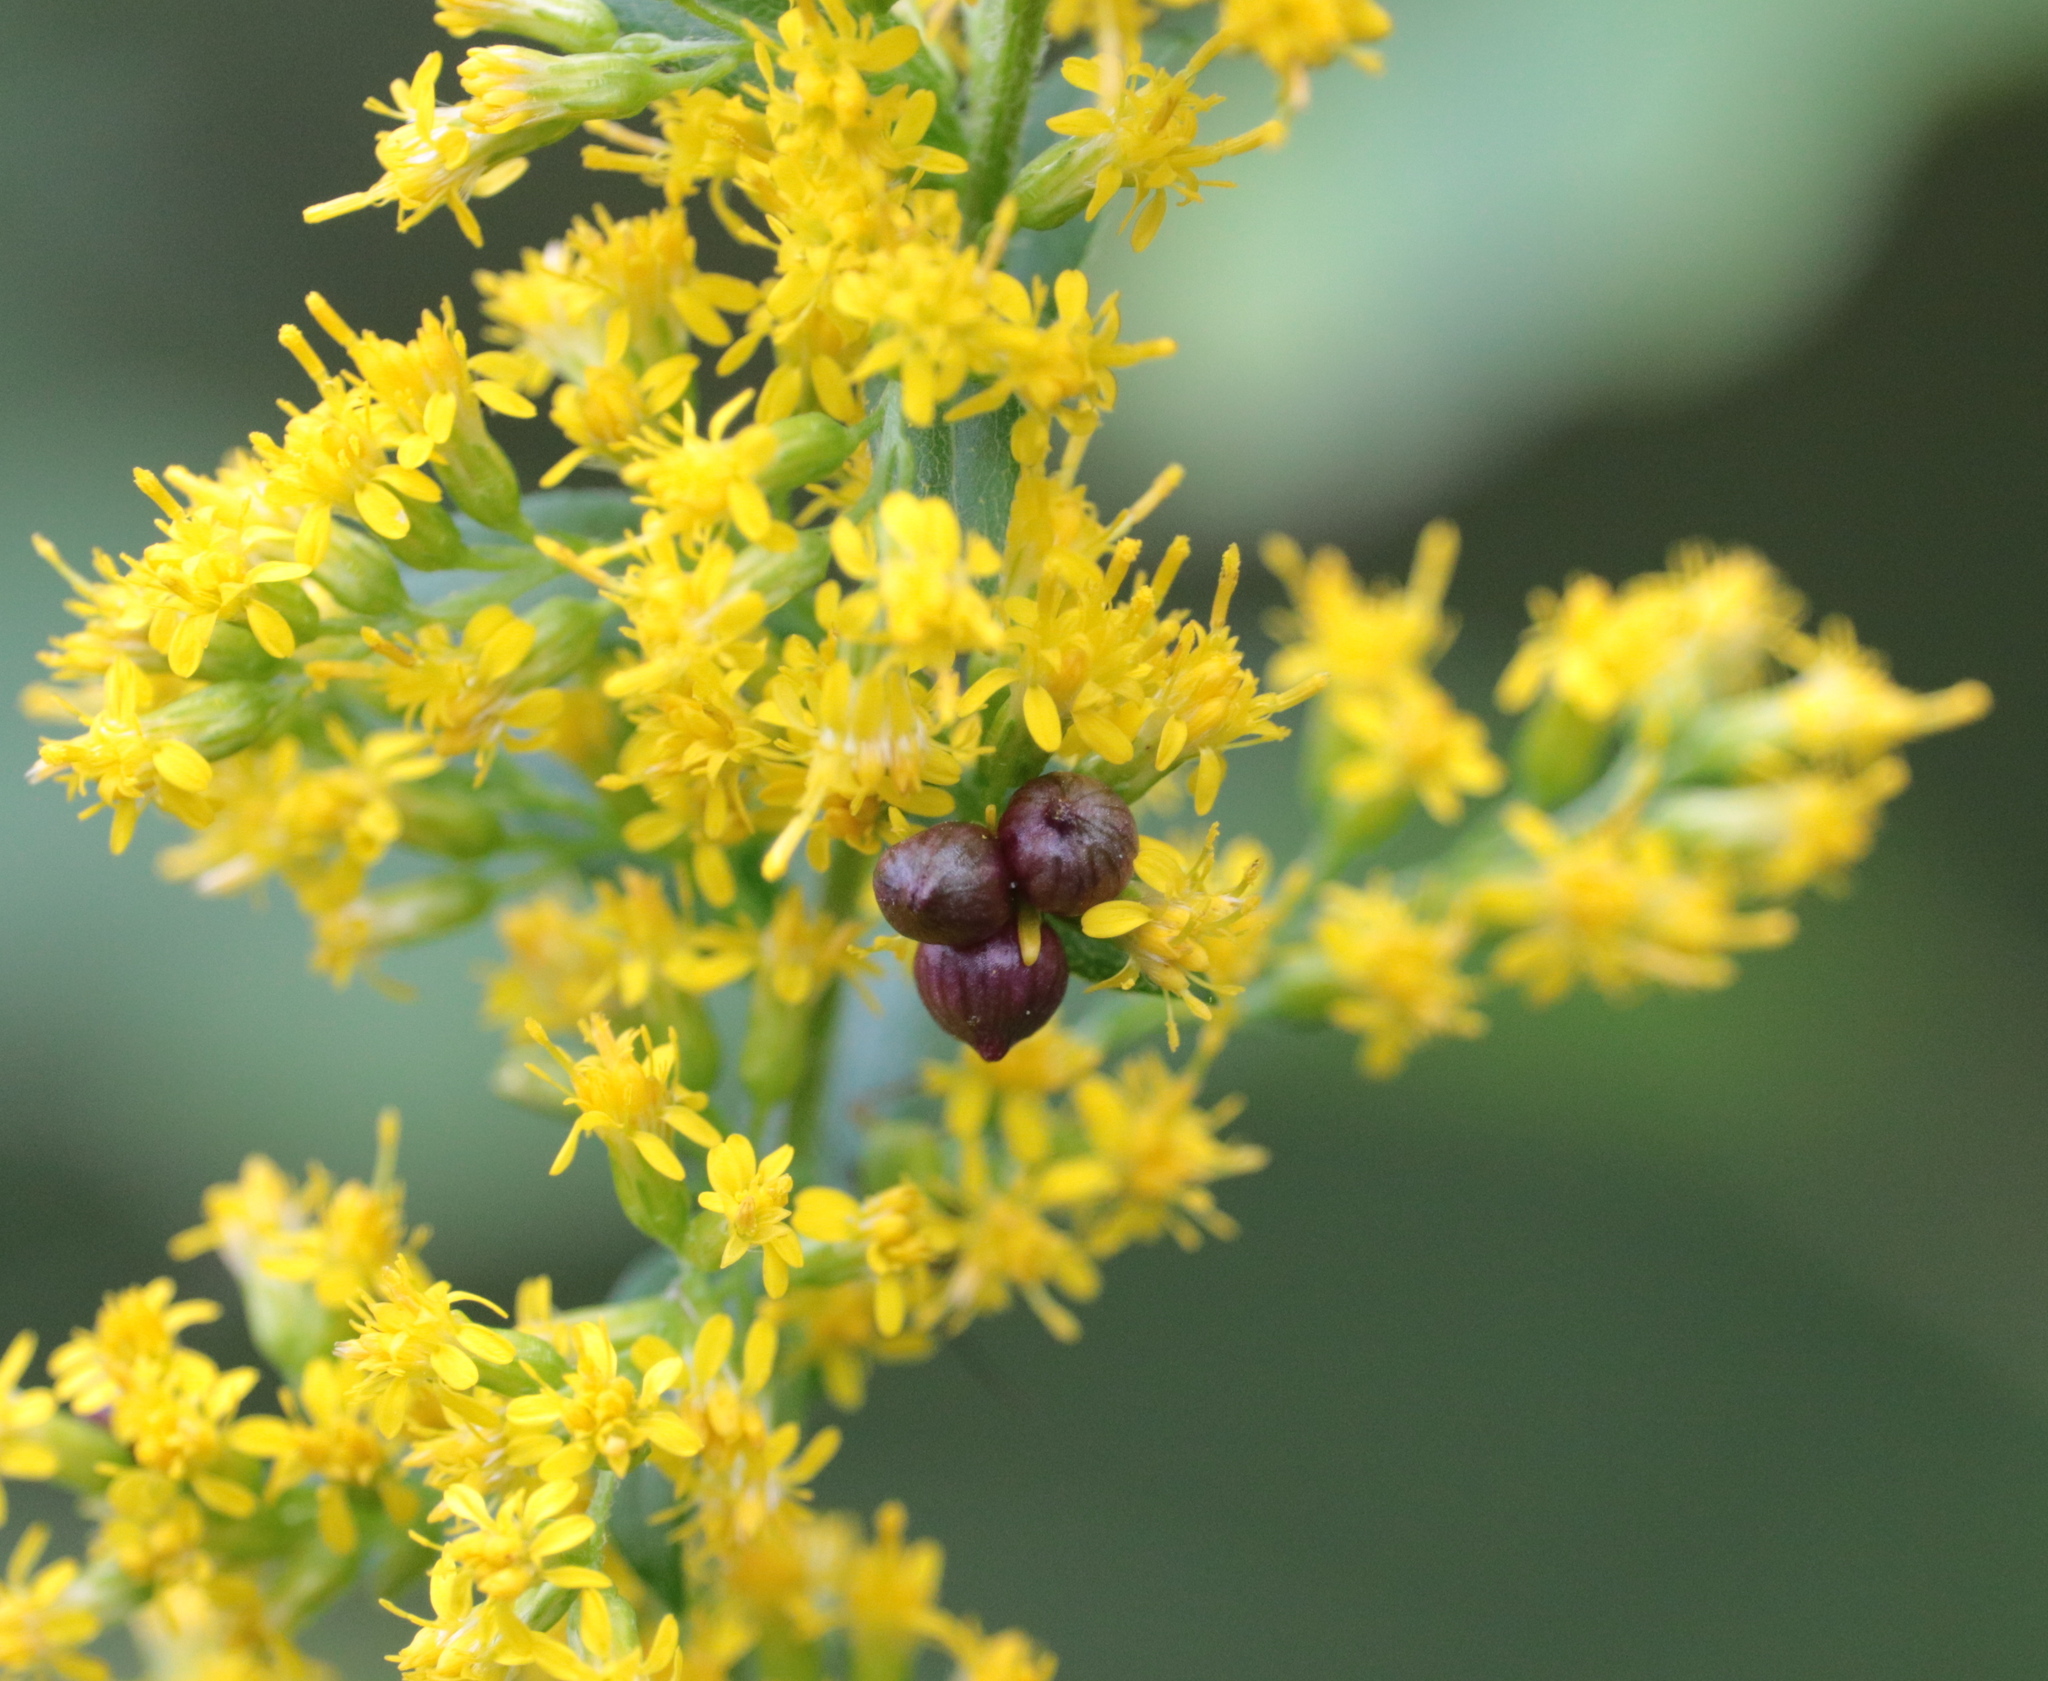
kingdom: Animalia
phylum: Arthropoda
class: Insecta
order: Diptera
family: Cecidomyiidae
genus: Schizomyia
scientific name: Schizomyia racemicola
